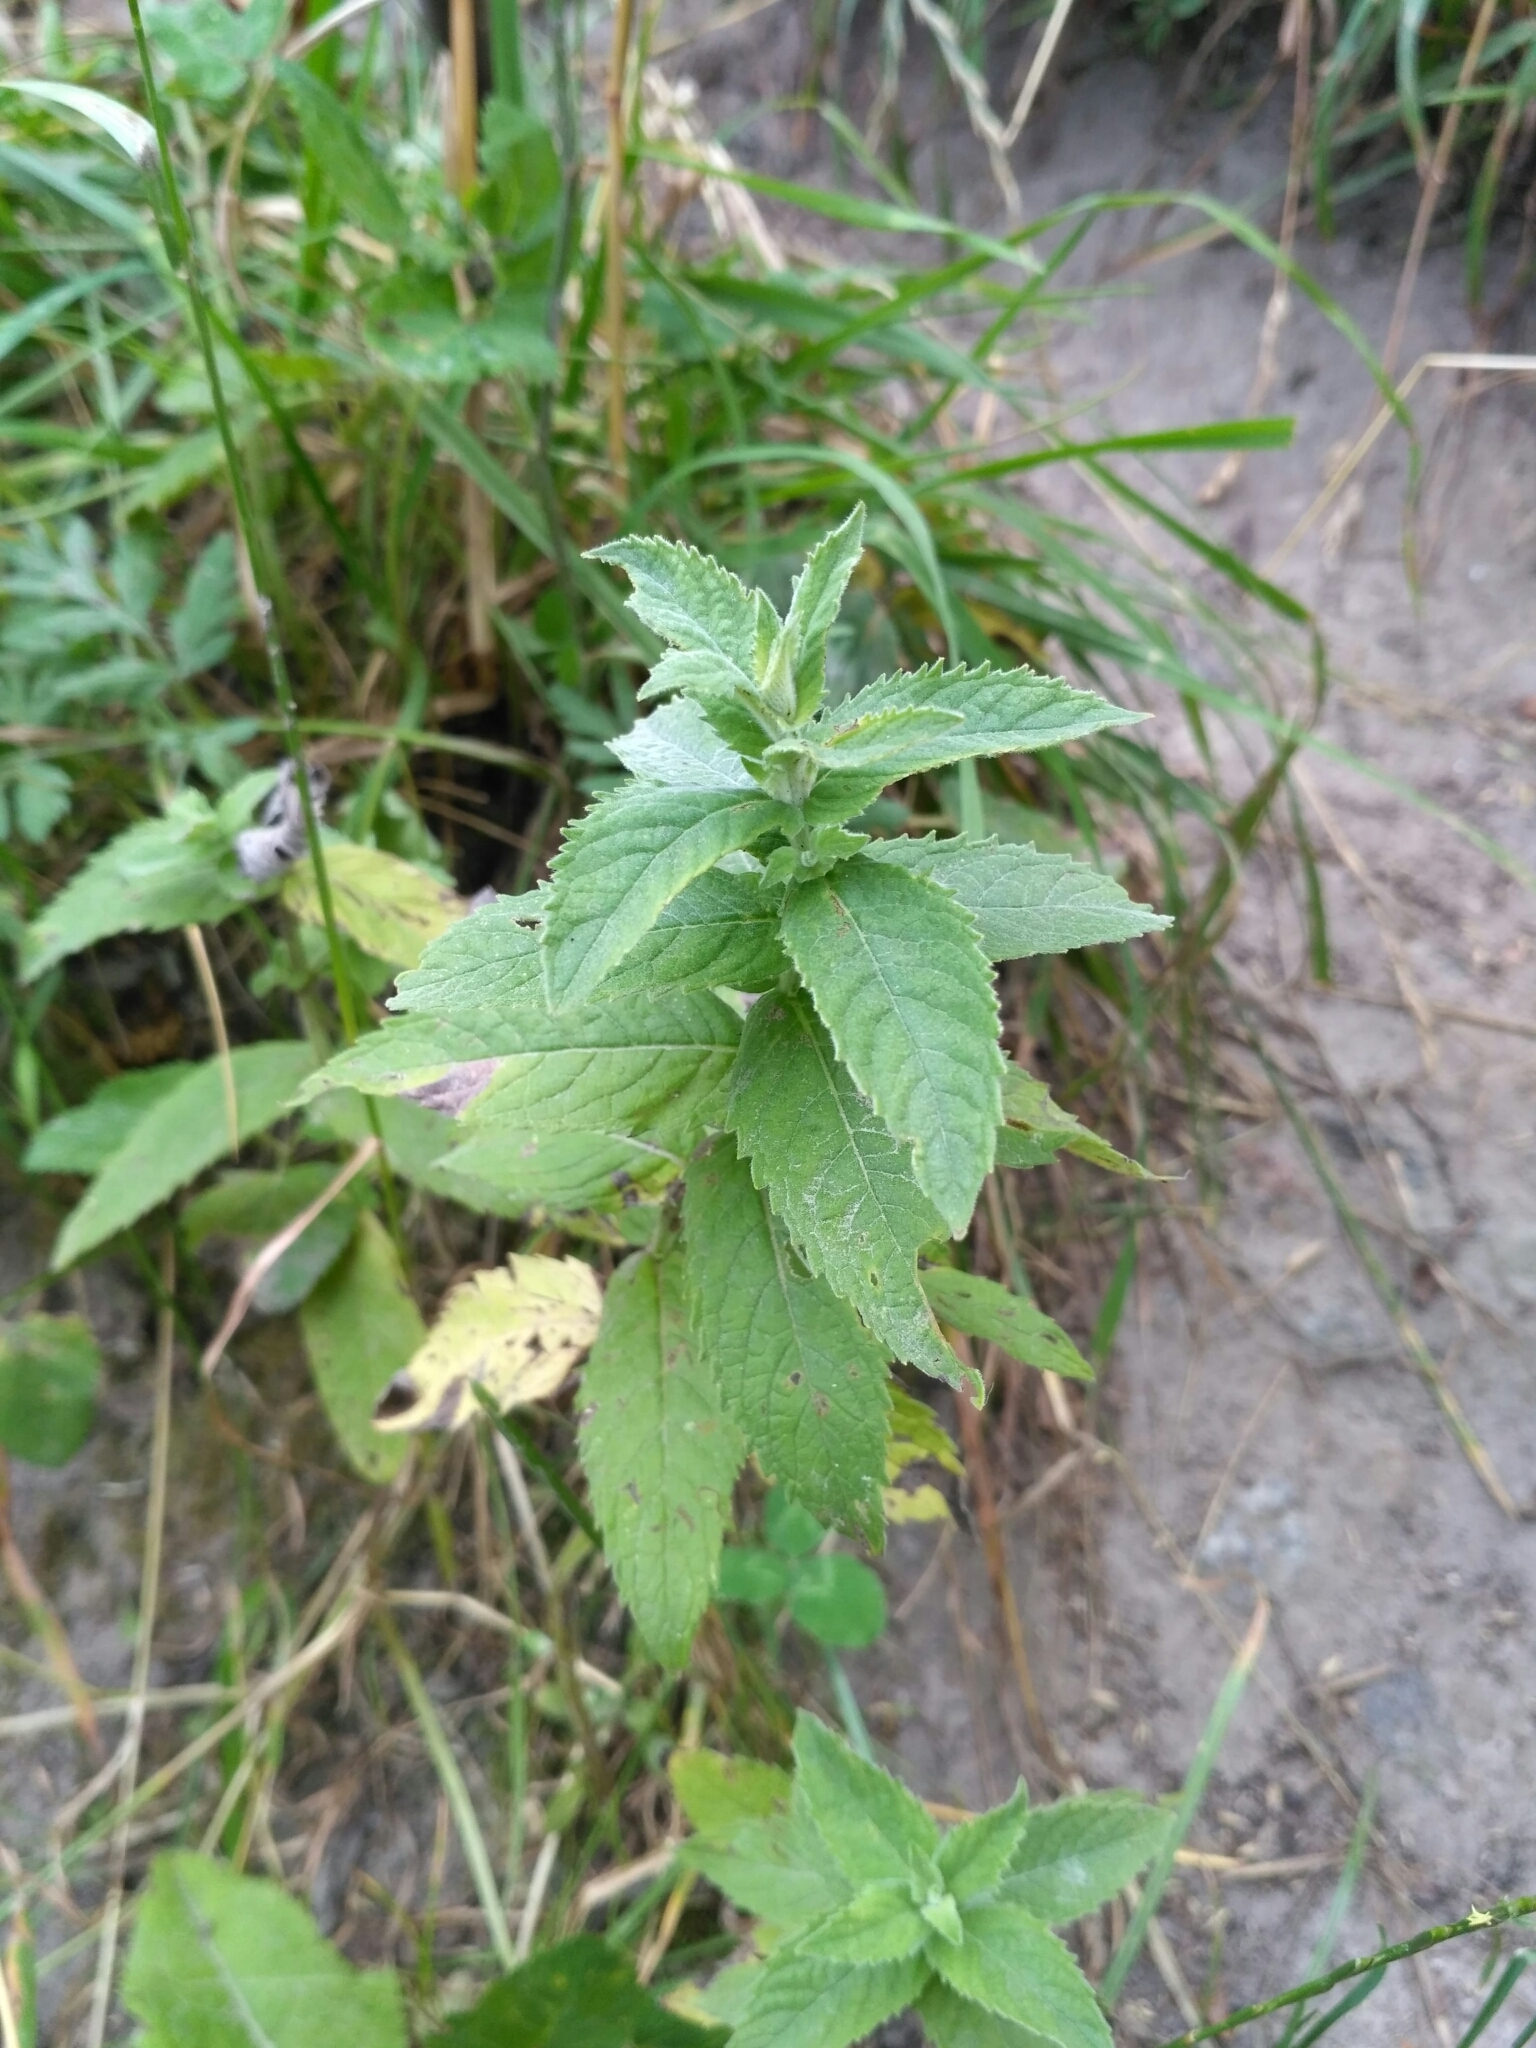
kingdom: Plantae
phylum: Tracheophyta
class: Magnoliopsida
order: Lamiales
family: Lamiaceae
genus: Mentha
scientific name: Mentha longifolia
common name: Horse mint
